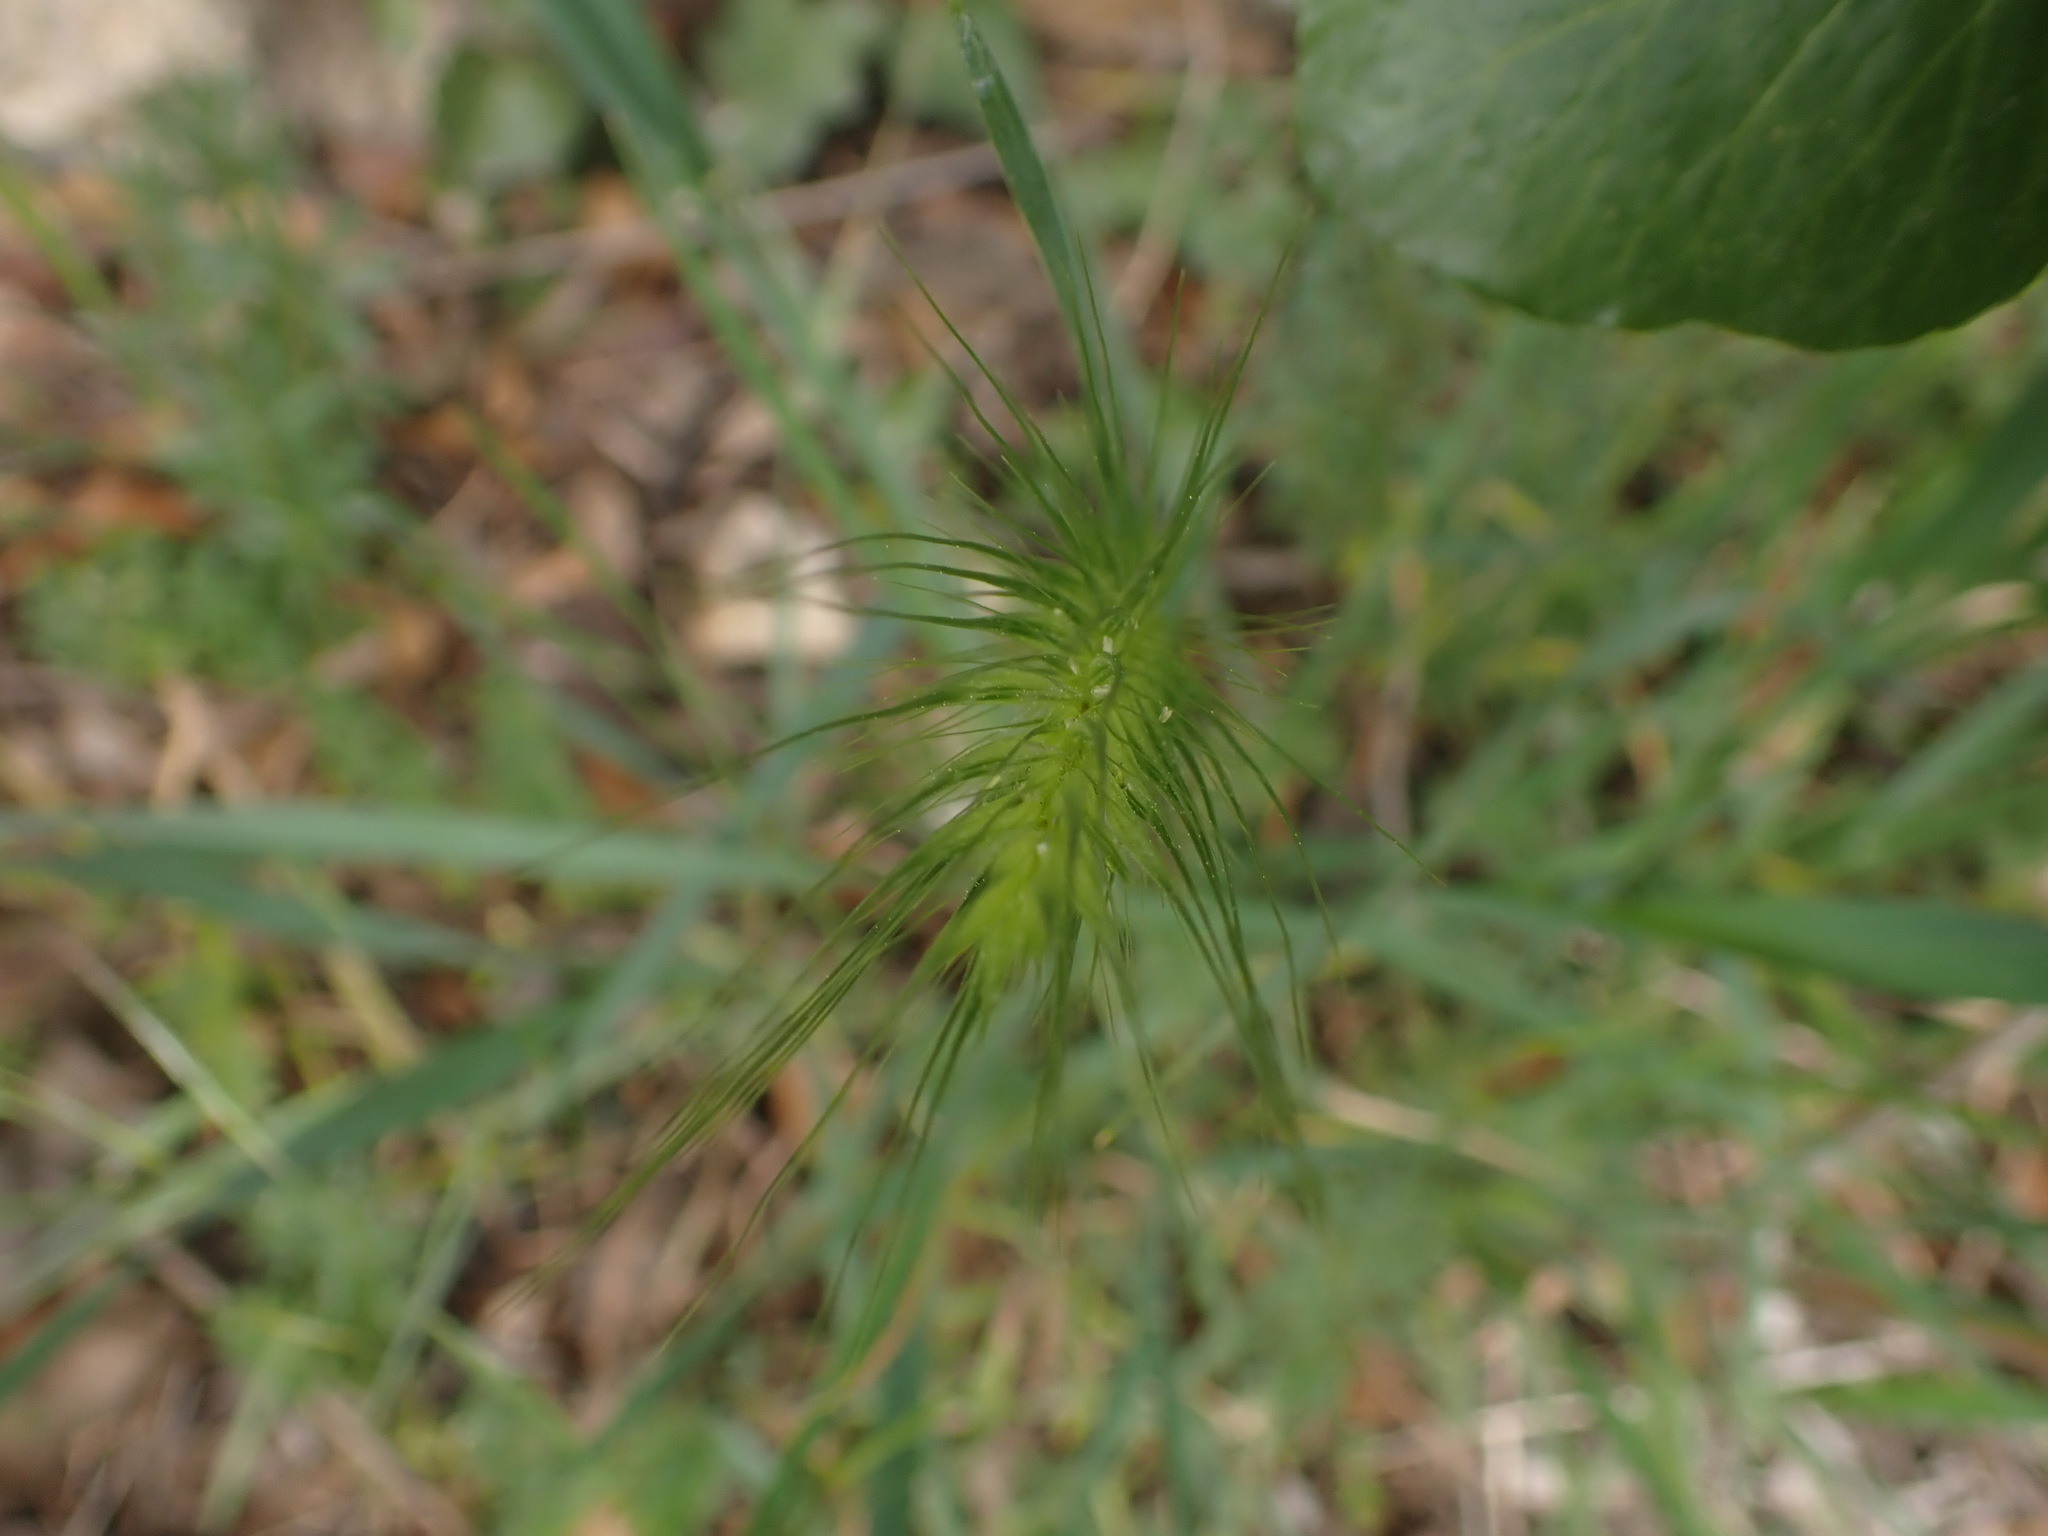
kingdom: Plantae
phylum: Tracheophyta
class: Liliopsida
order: Poales
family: Poaceae
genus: Hordeum
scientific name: Hordeum murinum
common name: Wall barley
